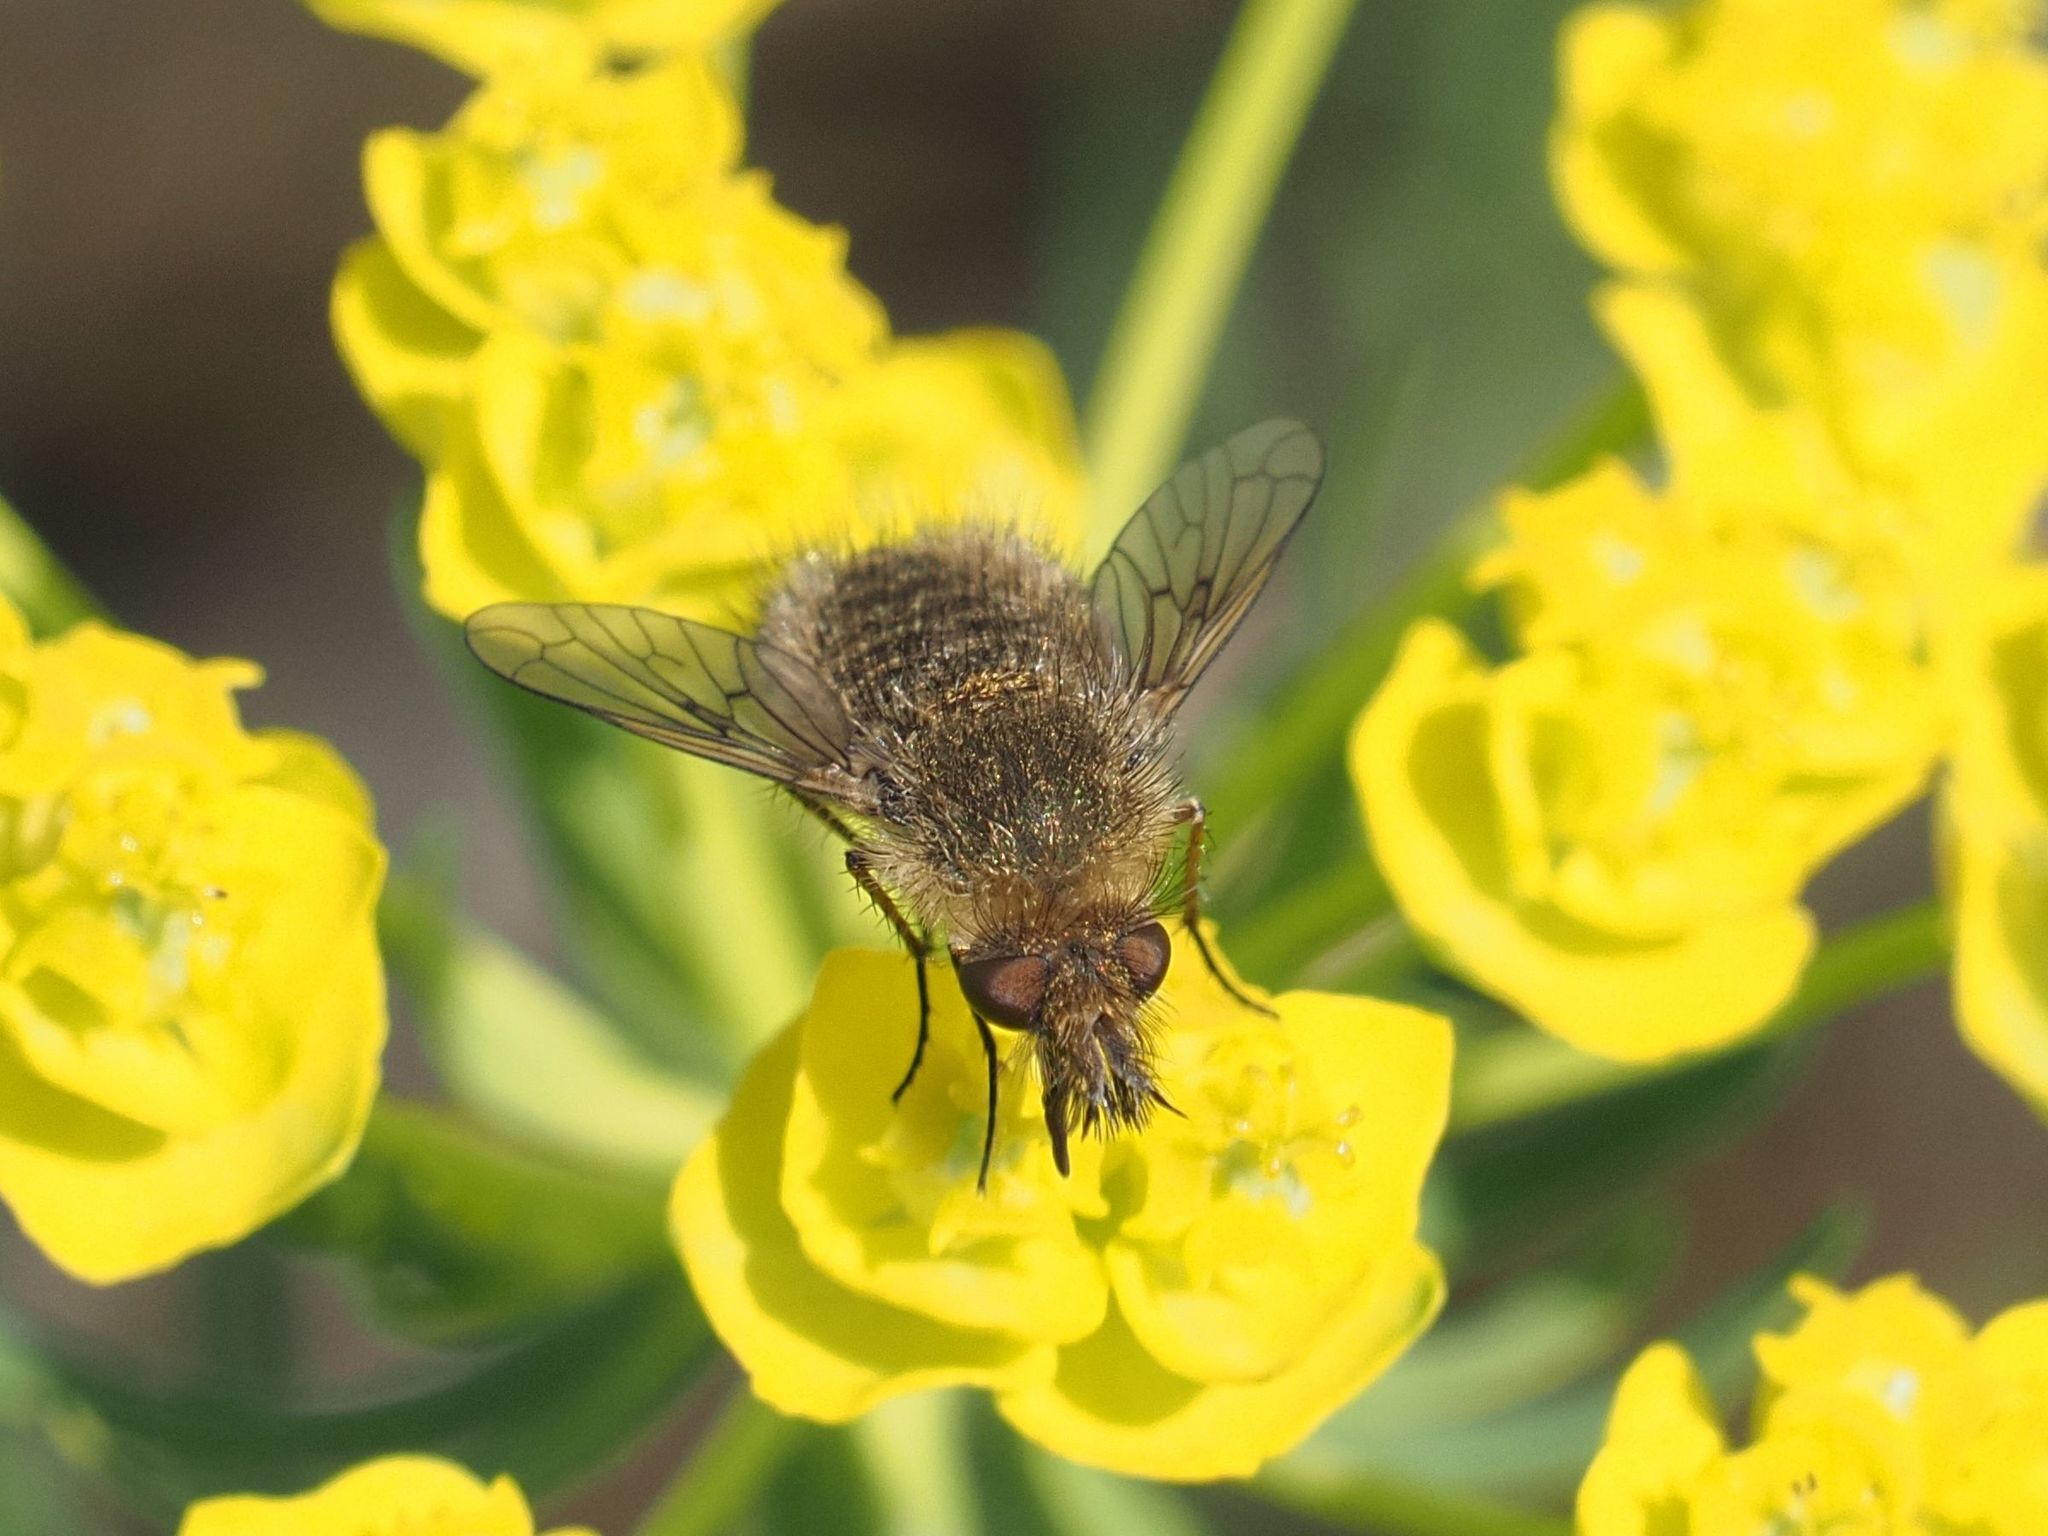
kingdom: Animalia
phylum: Arthropoda
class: Insecta
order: Diptera
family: Bombyliidae
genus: Conophorus
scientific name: Conophorus virescens
